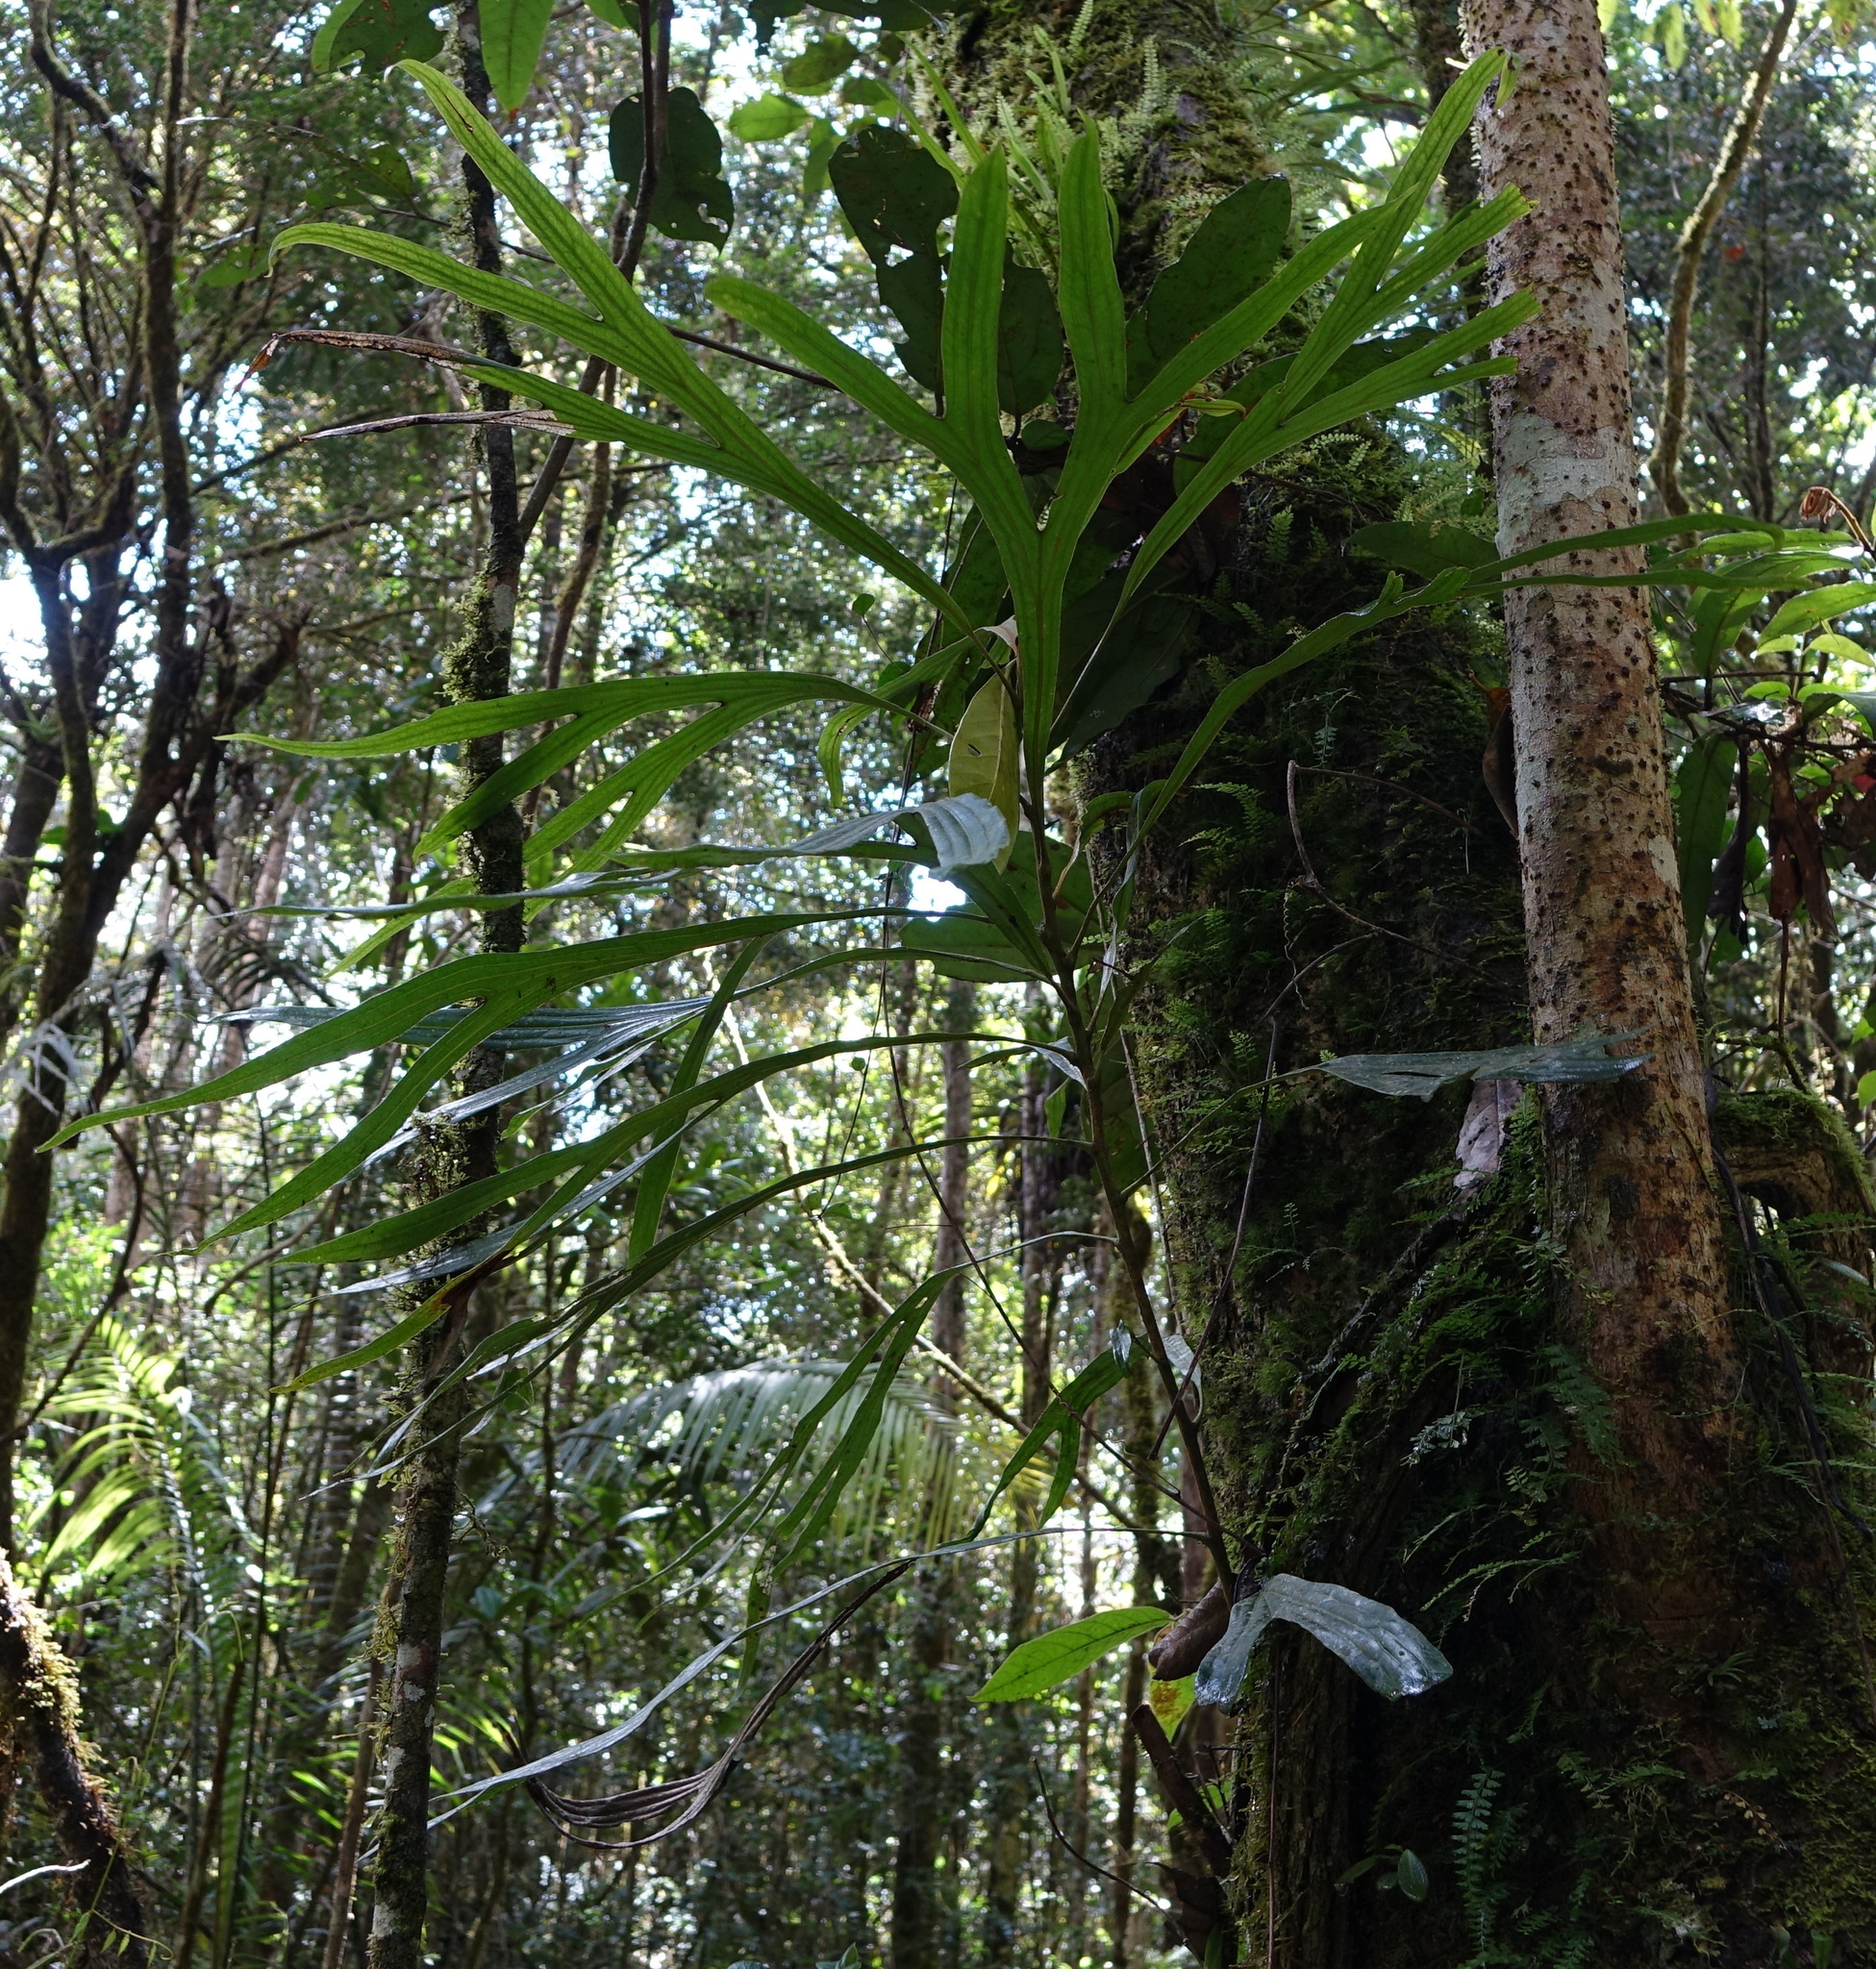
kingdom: Plantae
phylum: Tracheophyta
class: Magnoliopsida
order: Proteales
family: Proteaceae
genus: Dilobeia
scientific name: Dilobeia thouarsii
